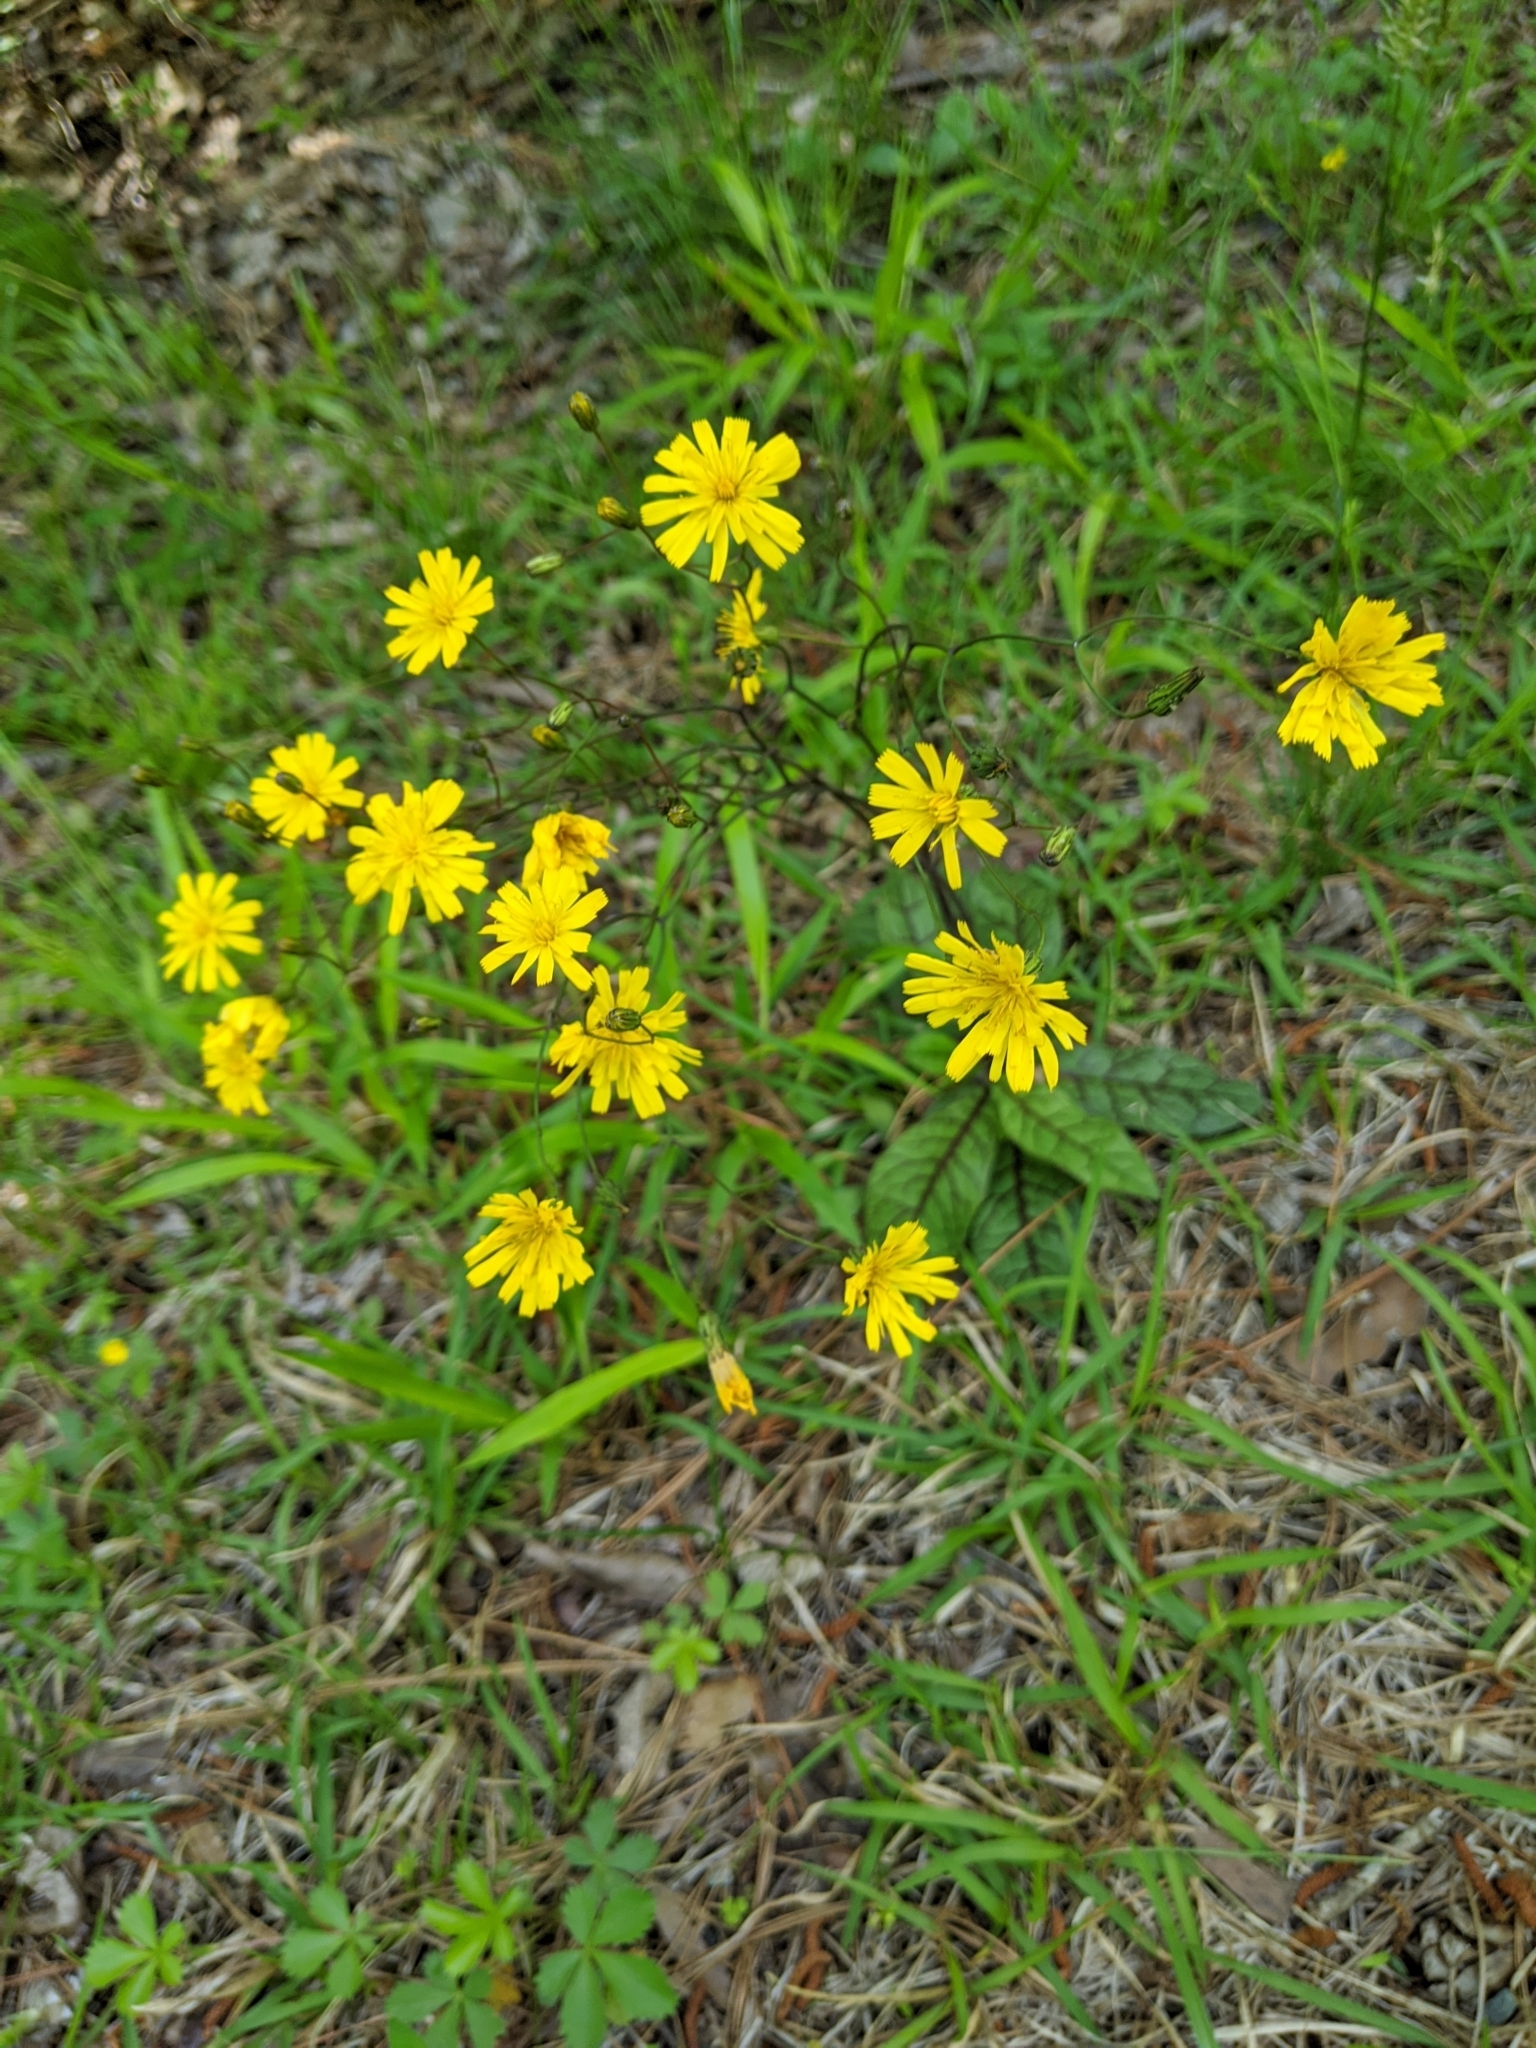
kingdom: Plantae
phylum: Tracheophyta
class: Magnoliopsida
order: Asterales
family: Asteraceae
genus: Hieracium
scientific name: Hieracium venosum
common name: Rattlesnake hawkweed
